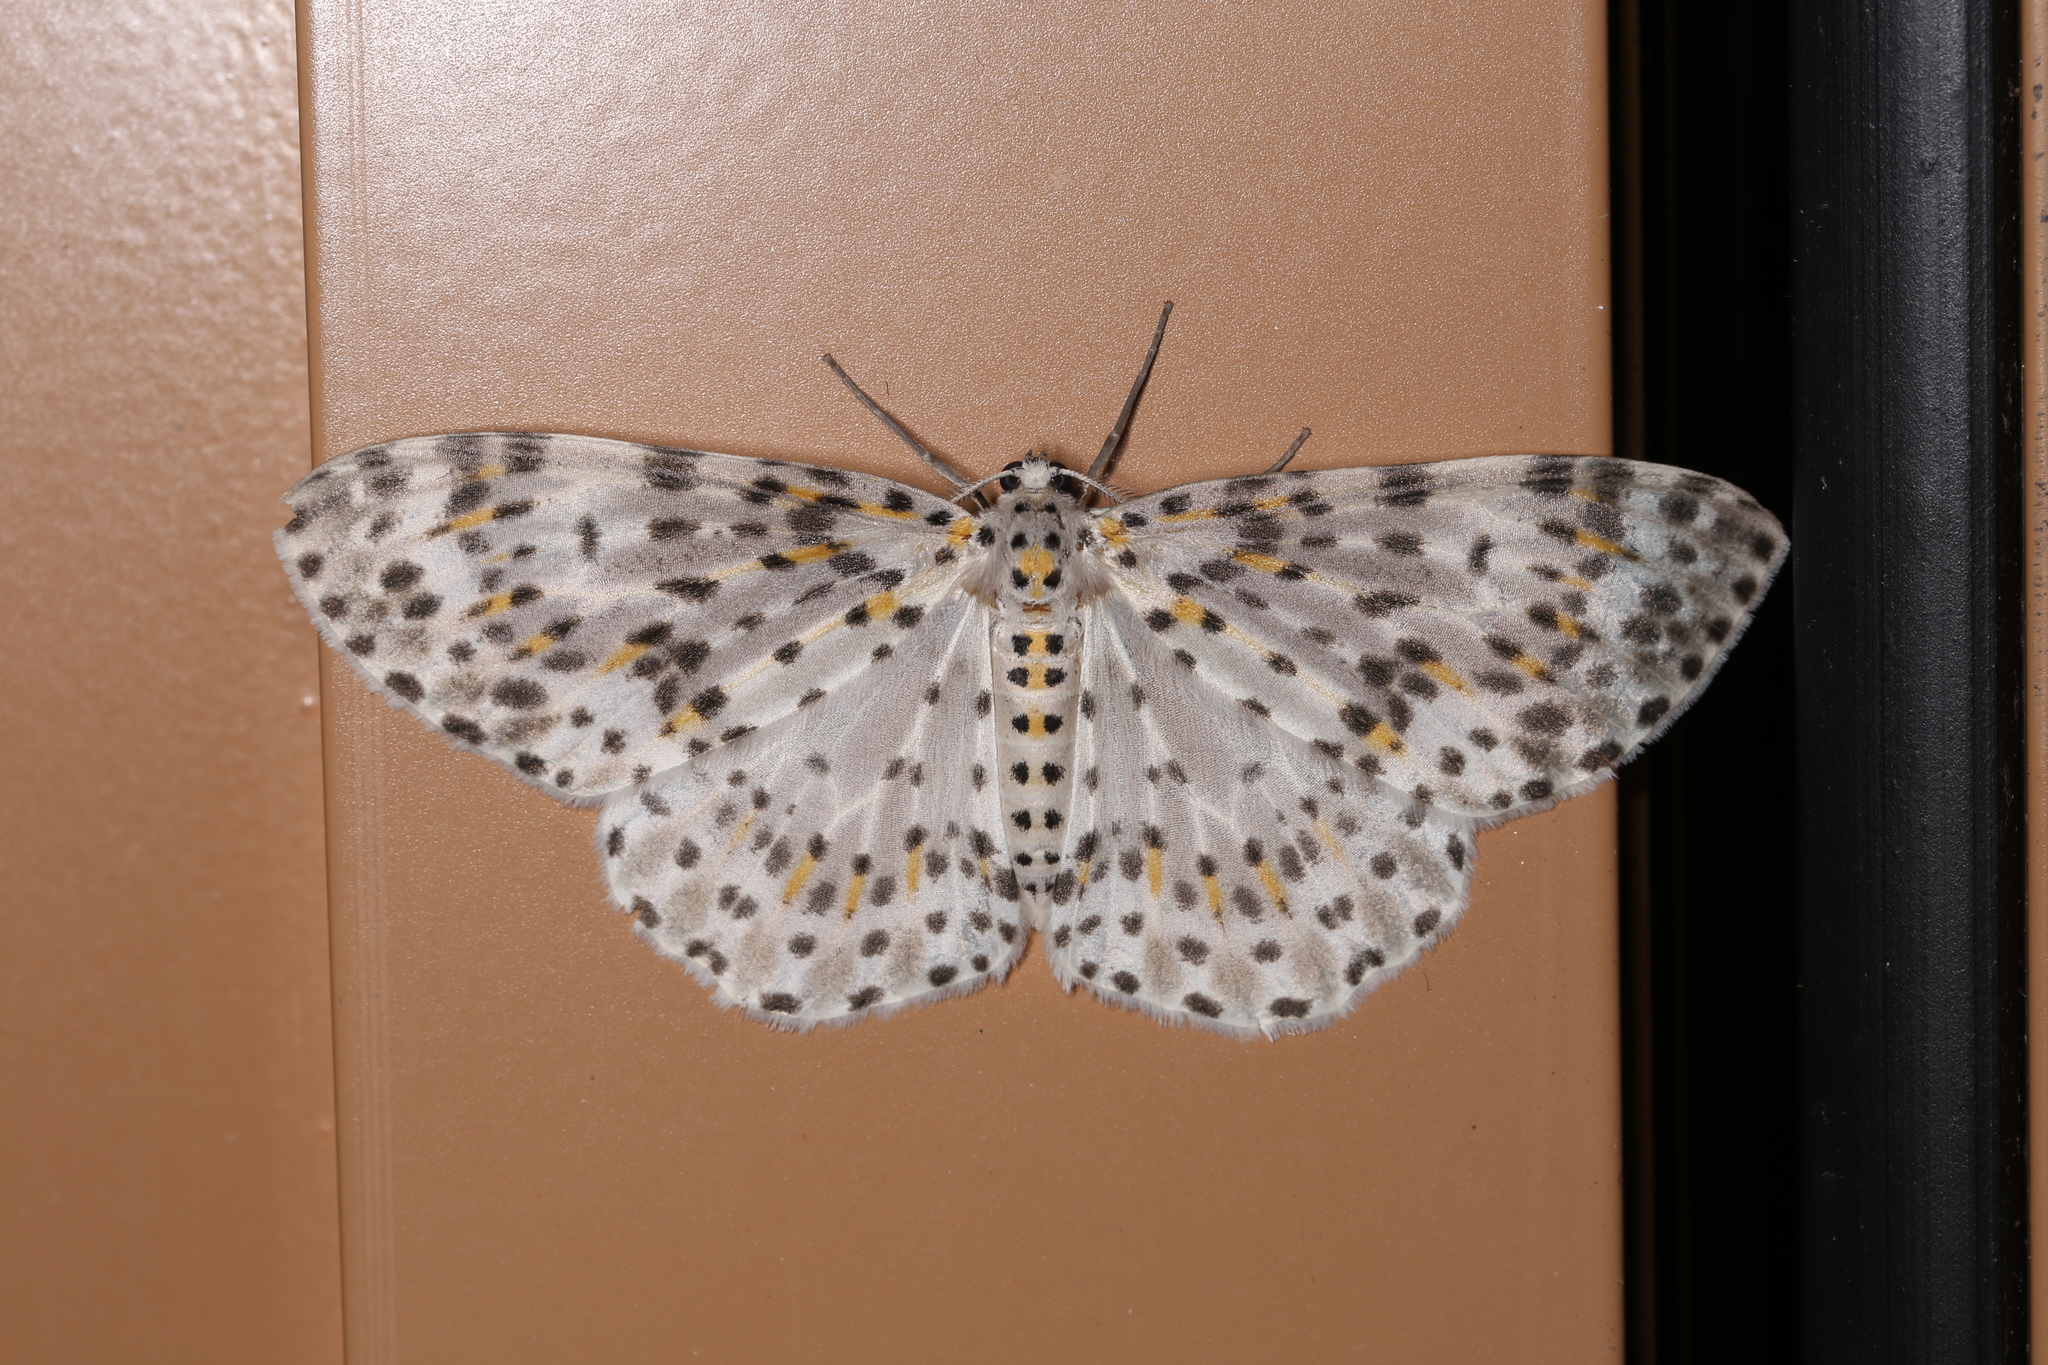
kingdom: Animalia
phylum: Arthropoda
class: Insecta
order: Lepidoptera
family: Geometridae
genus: Metapercnia
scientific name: Metapercnia ductaria
